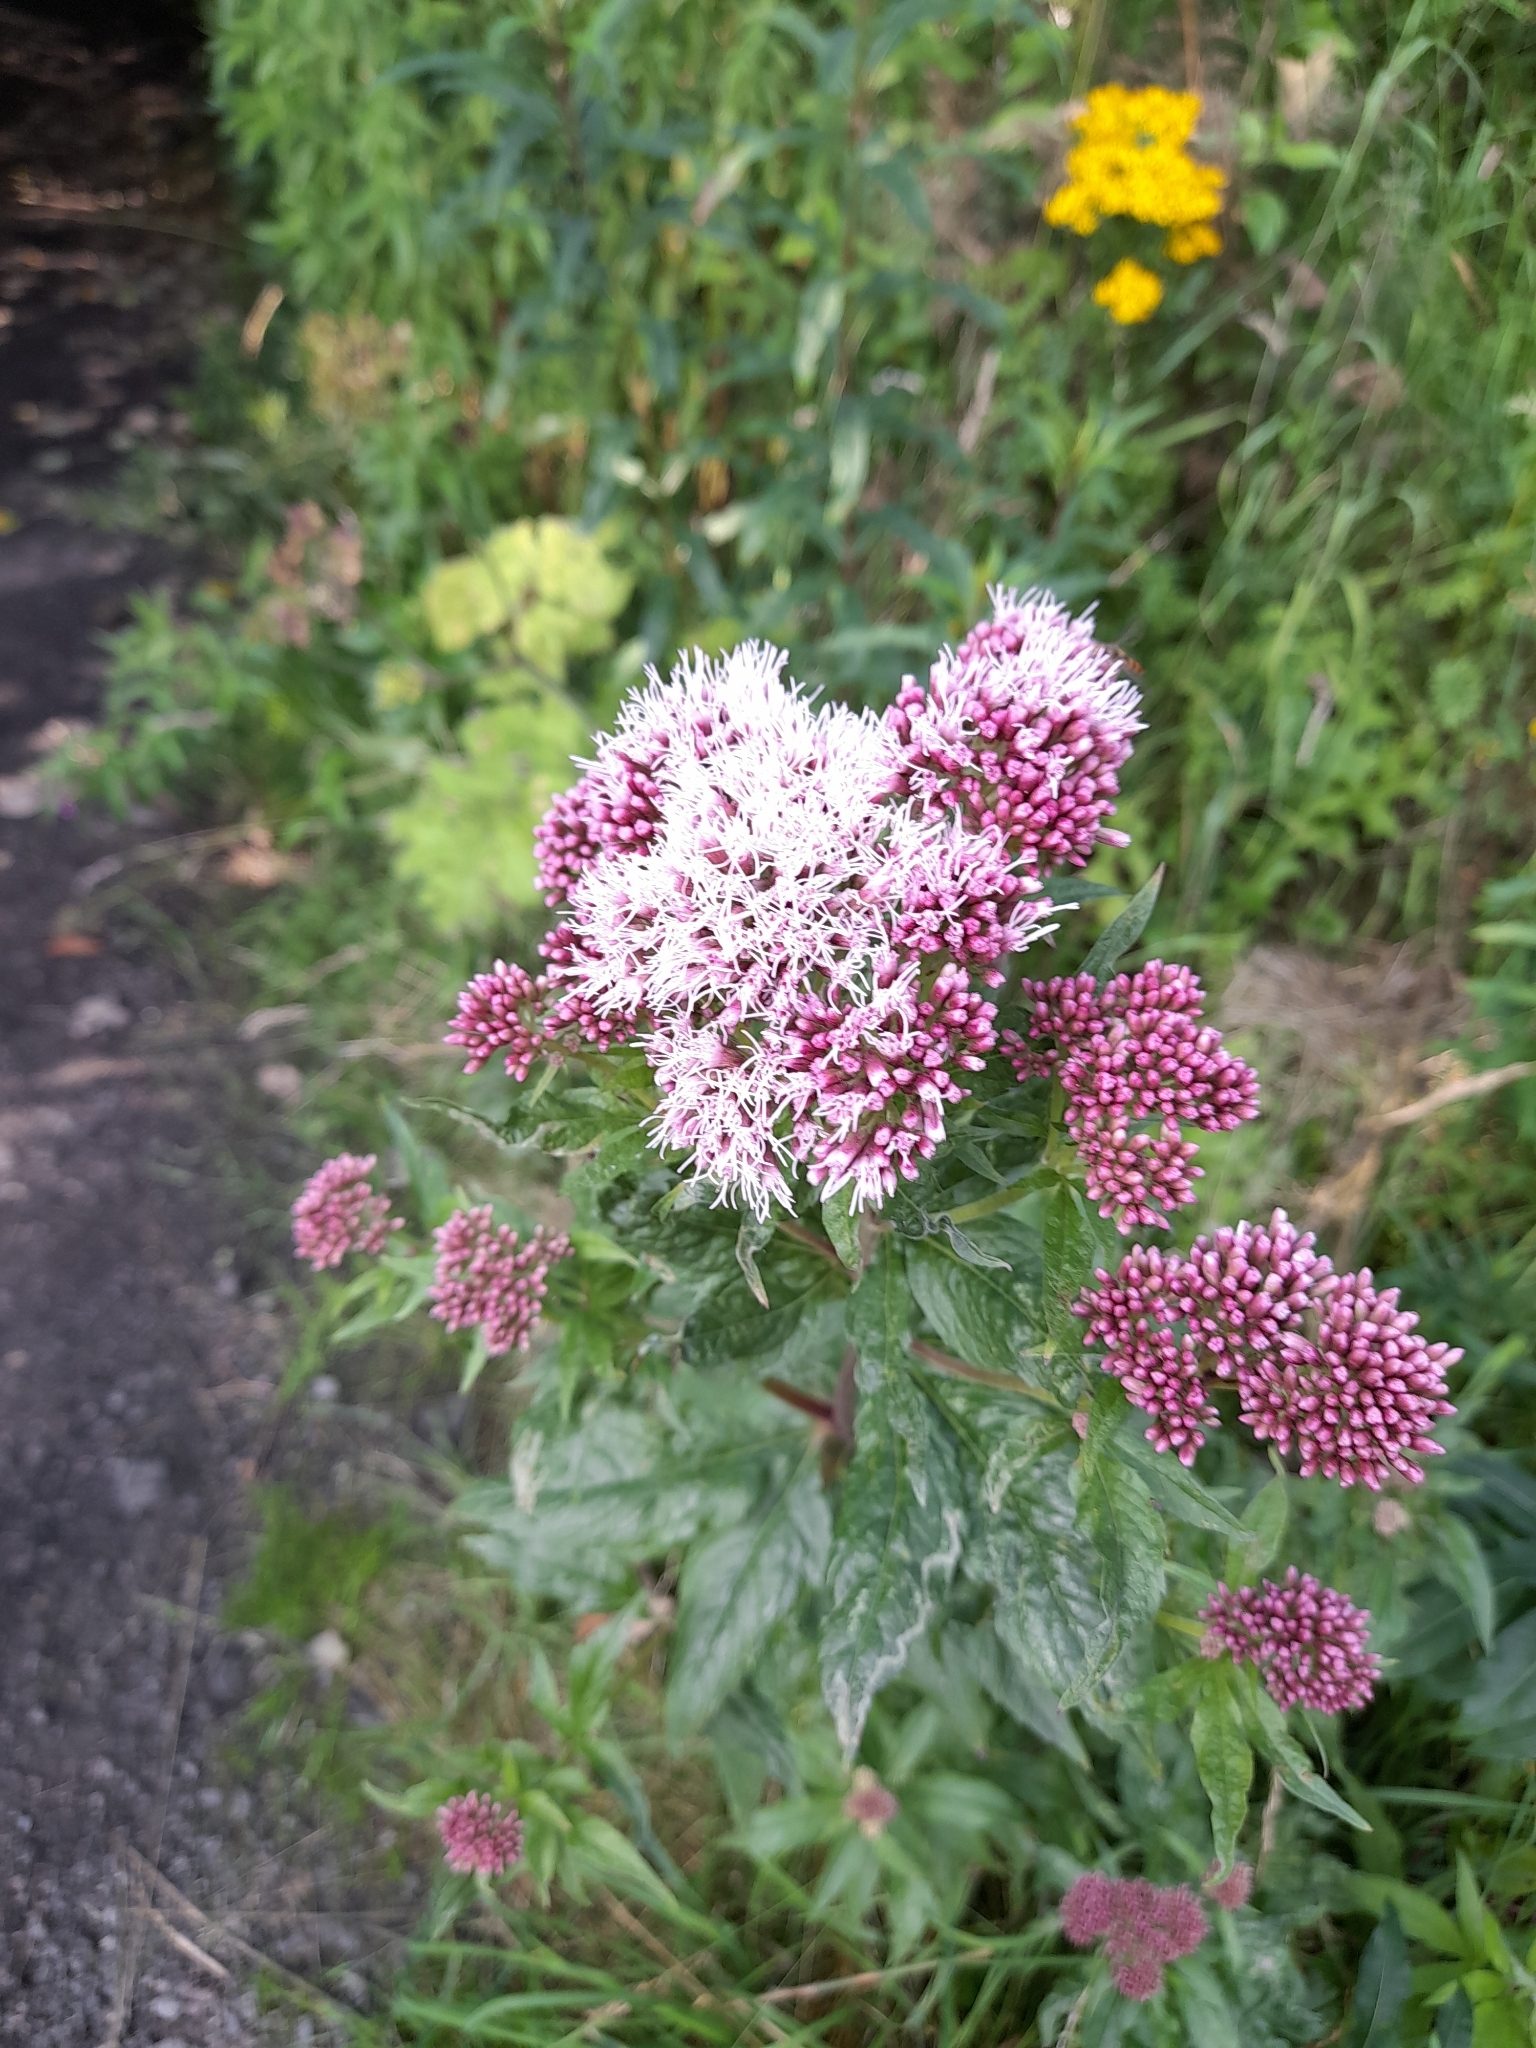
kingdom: Plantae
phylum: Tracheophyta
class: Magnoliopsida
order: Asterales
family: Asteraceae
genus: Eupatorium
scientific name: Eupatorium cannabinum
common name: Hemp-agrimony
